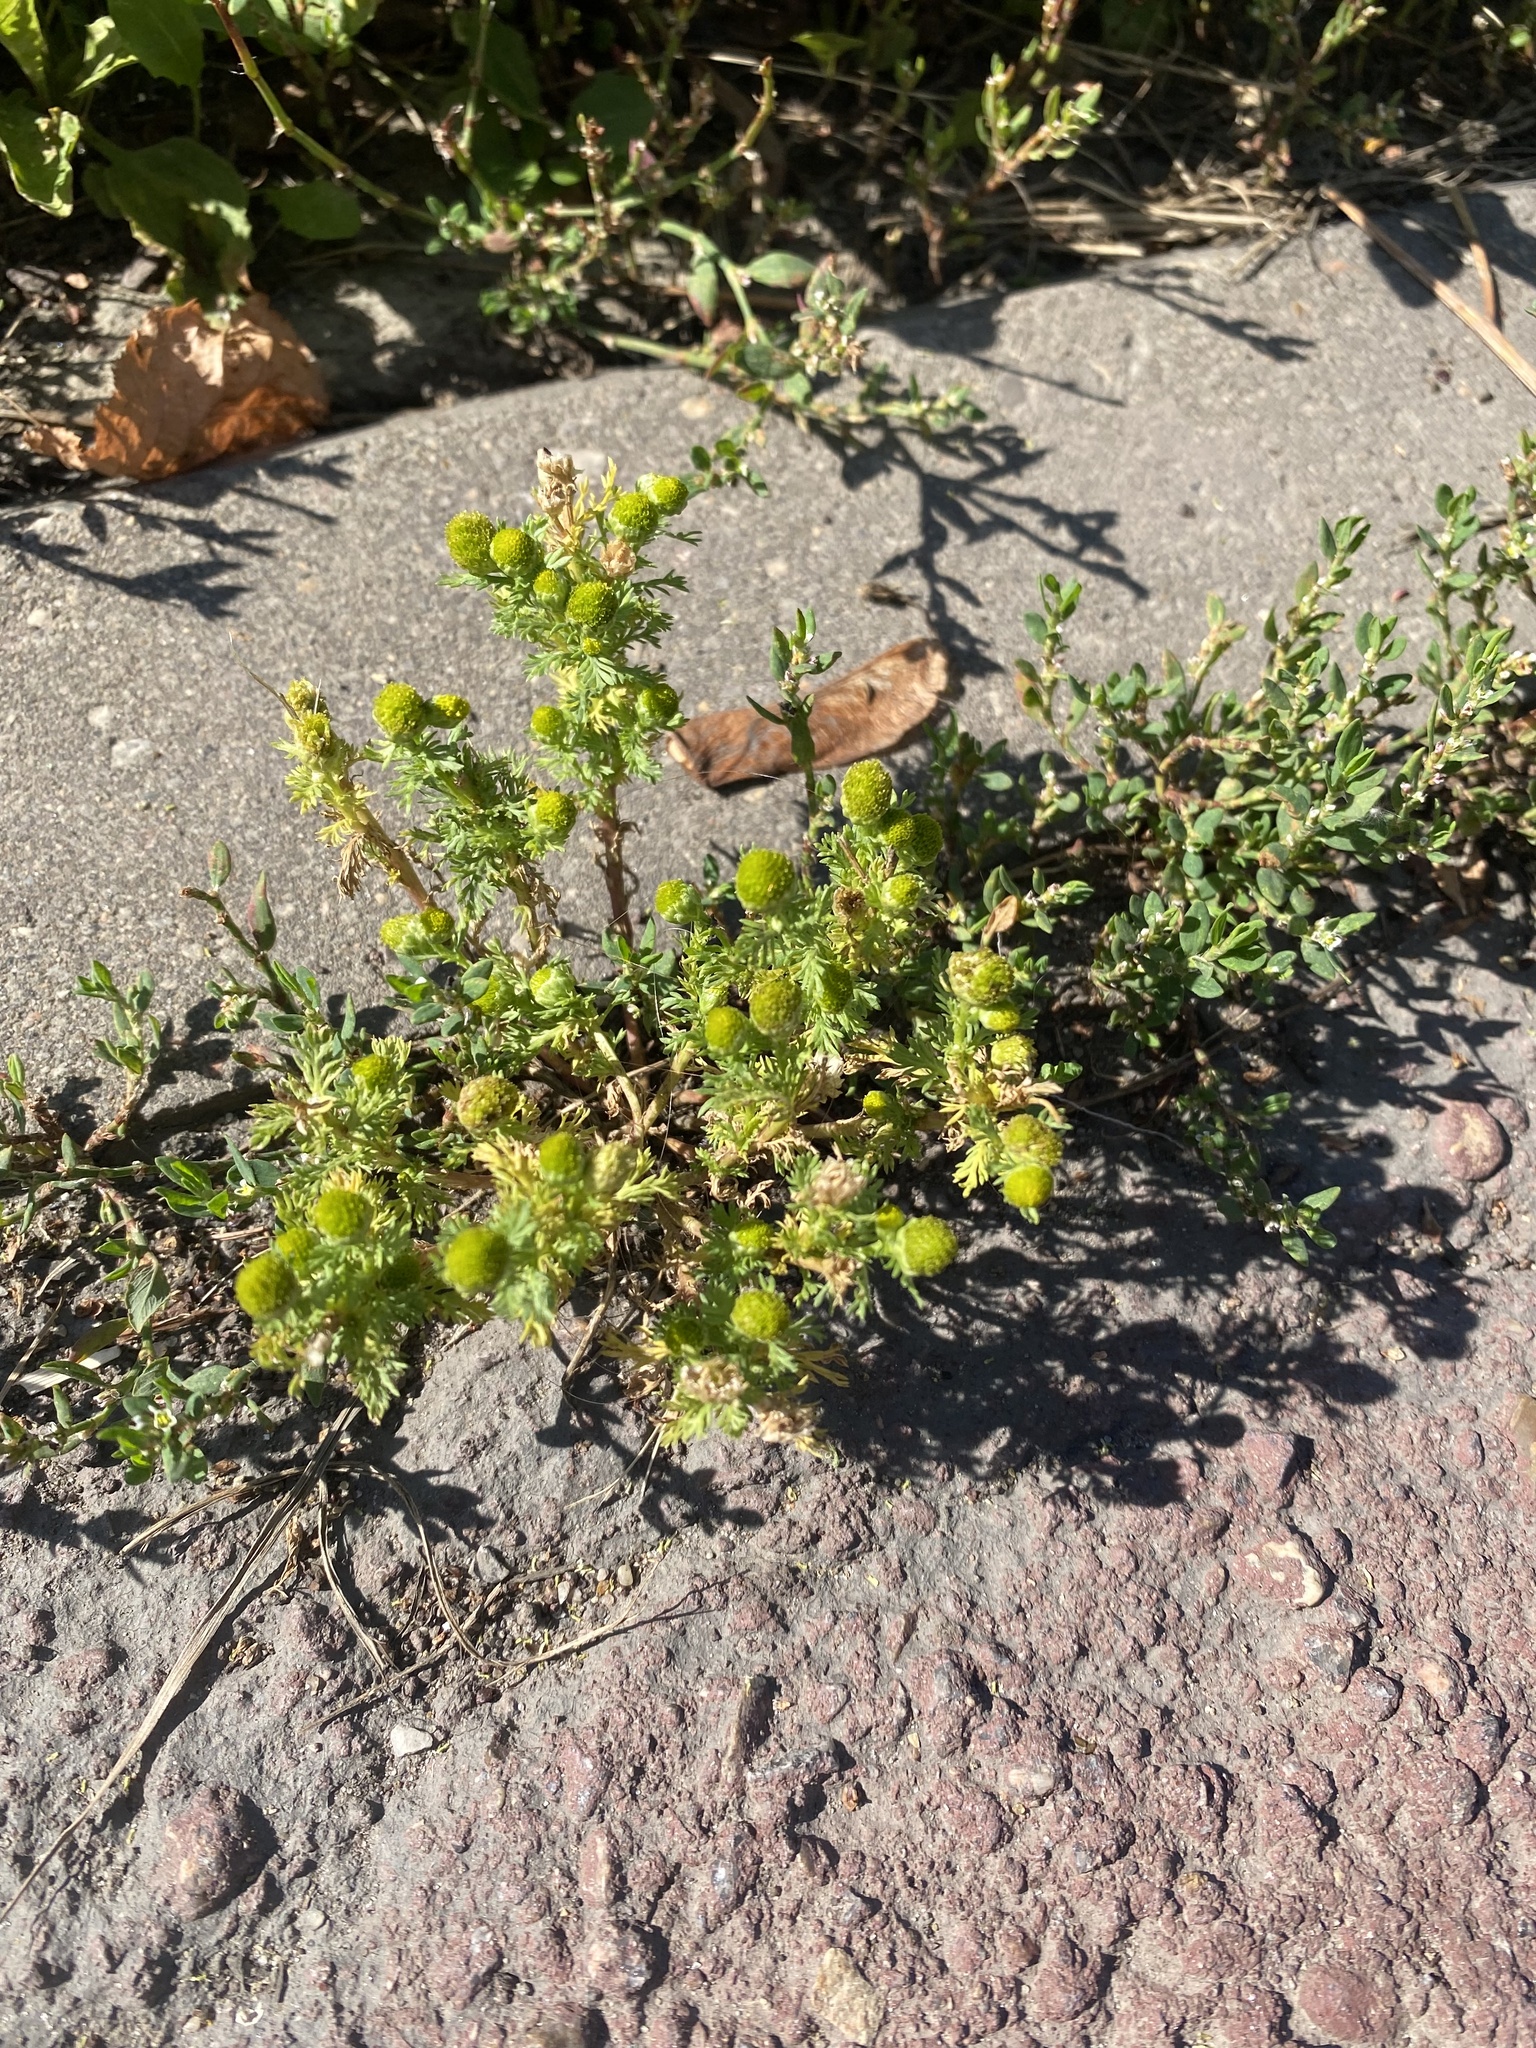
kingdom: Plantae
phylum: Tracheophyta
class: Magnoliopsida
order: Asterales
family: Asteraceae
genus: Matricaria
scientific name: Matricaria discoidea
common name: Disc mayweed
